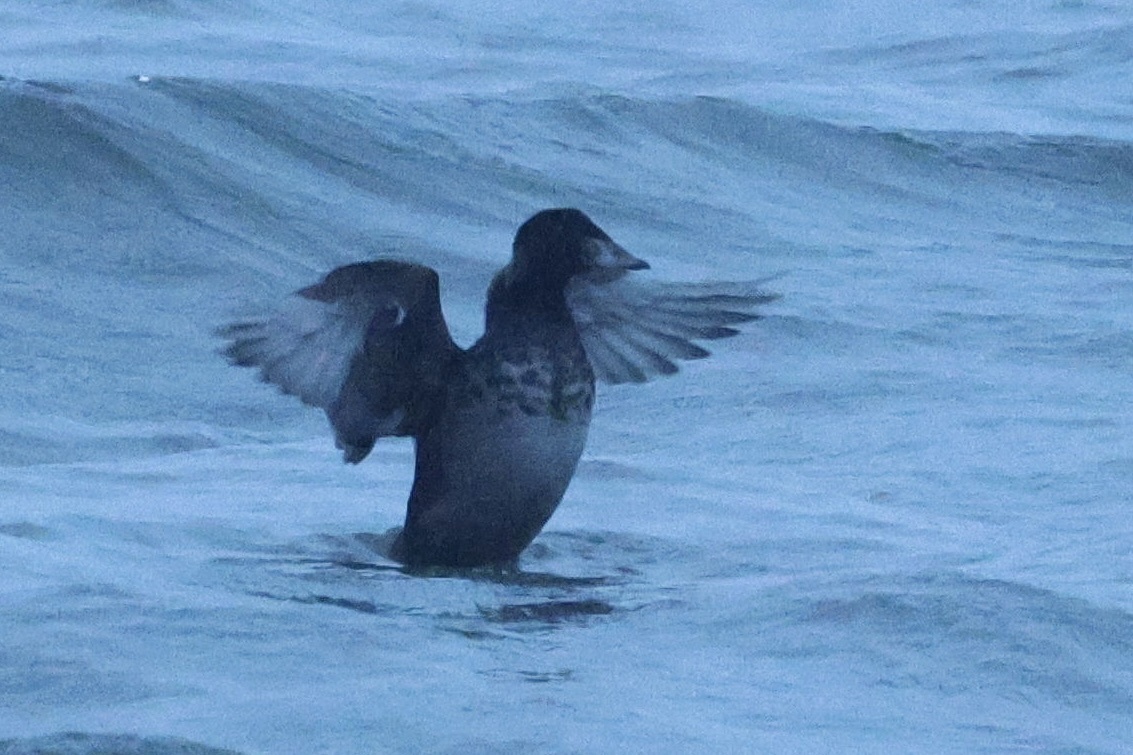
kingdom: Animalia
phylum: Chordata
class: Aves
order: Anseriformes
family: Anatidae
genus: Melanitta
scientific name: Melanitta perspicillata
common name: Surf scoter
